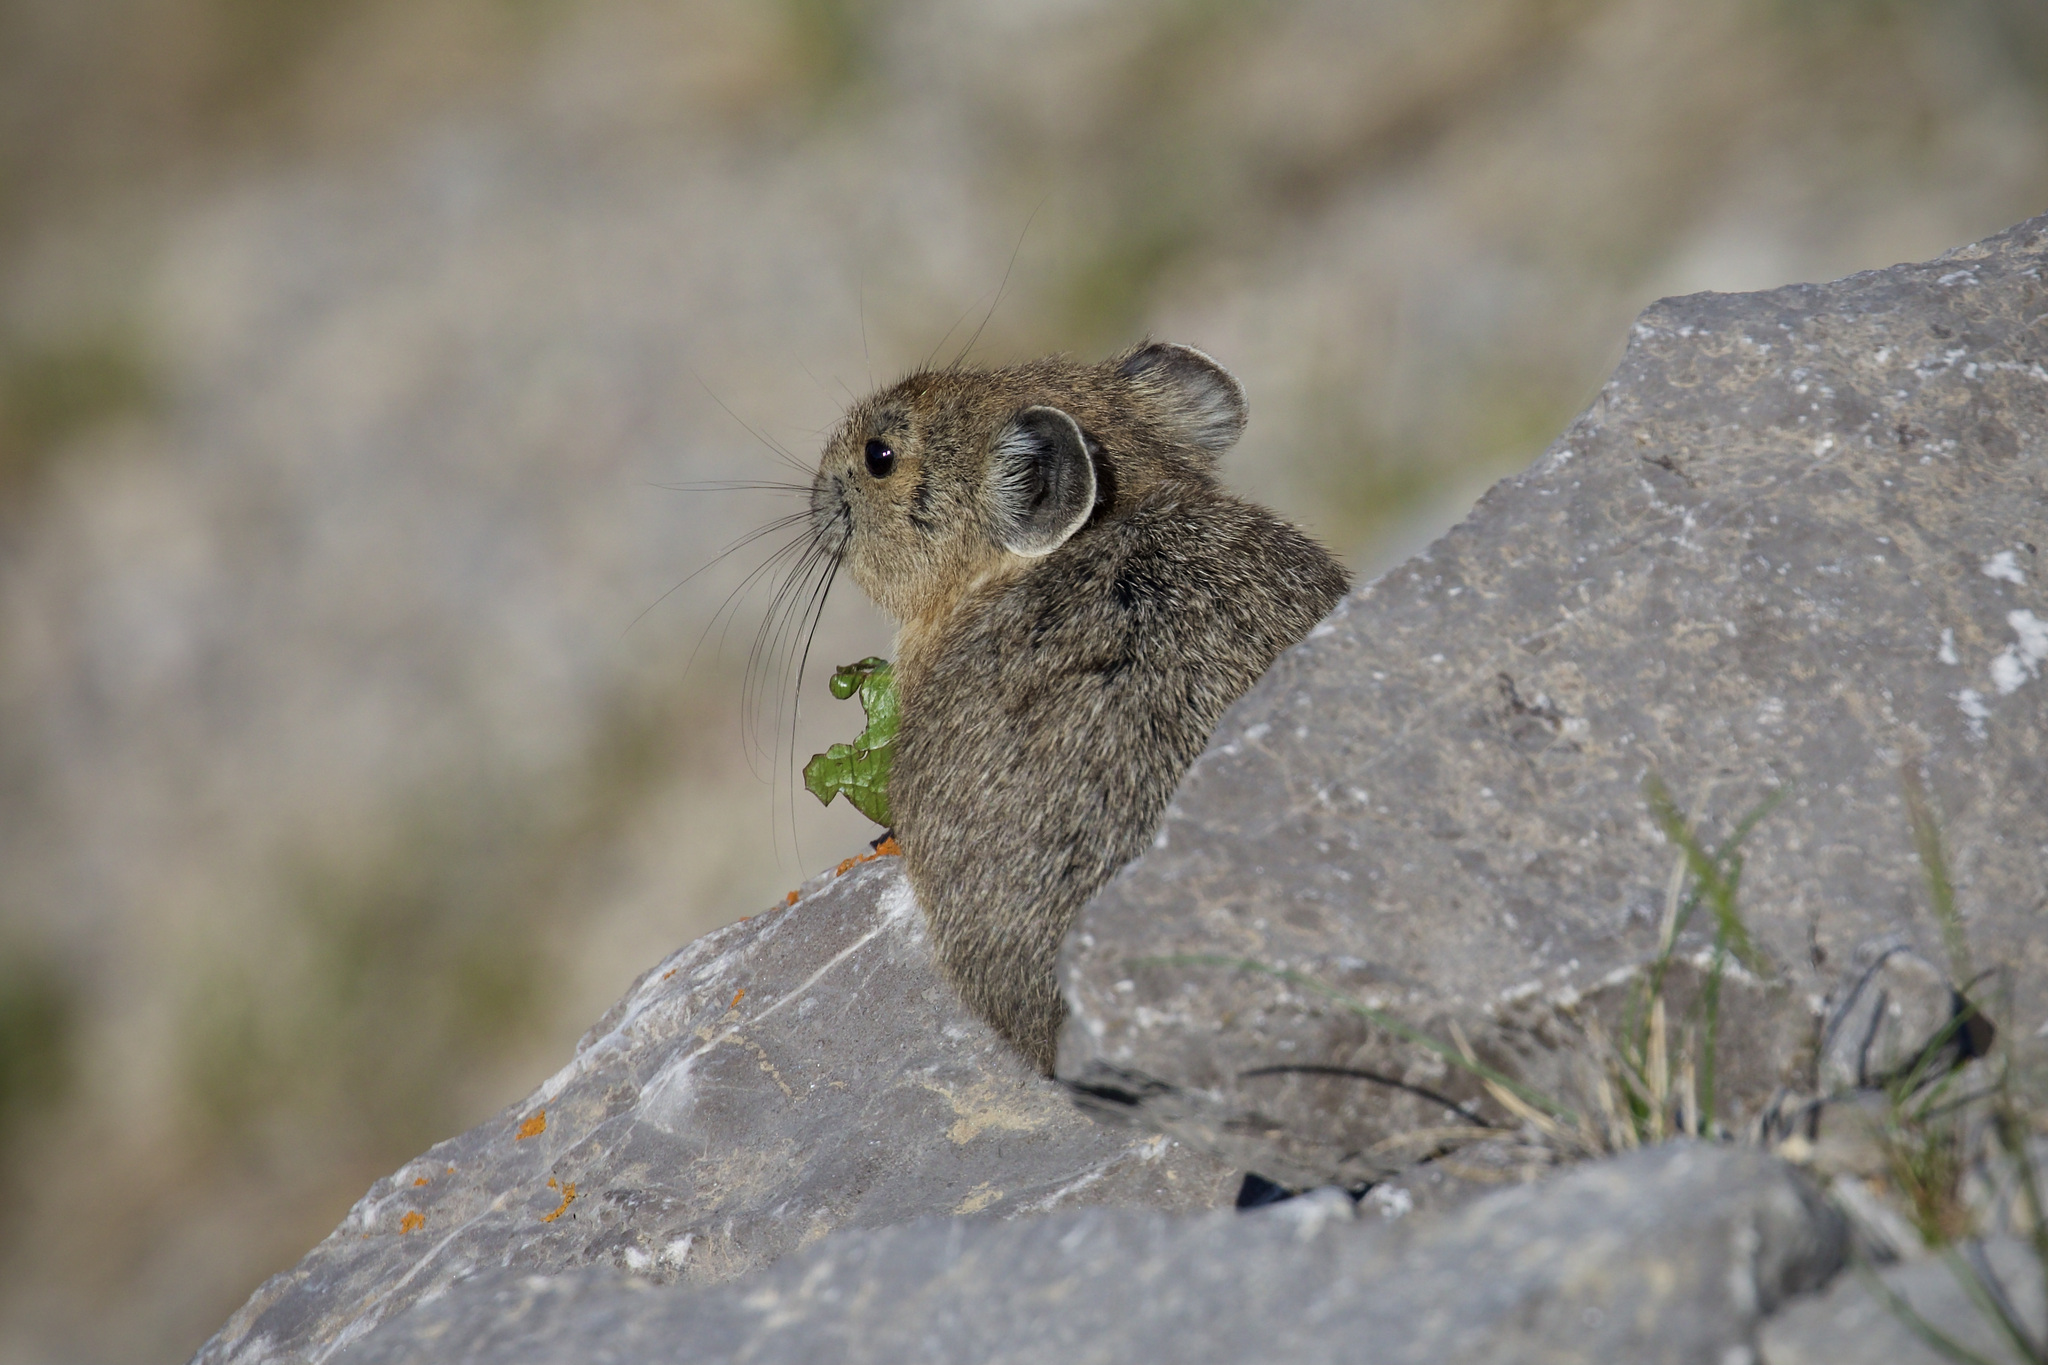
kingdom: Animalia
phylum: Chordata
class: Mammalia
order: Lagomorpha
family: Ochotonidae
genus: Ochotona
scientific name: Ochotona princeps
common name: American pika
